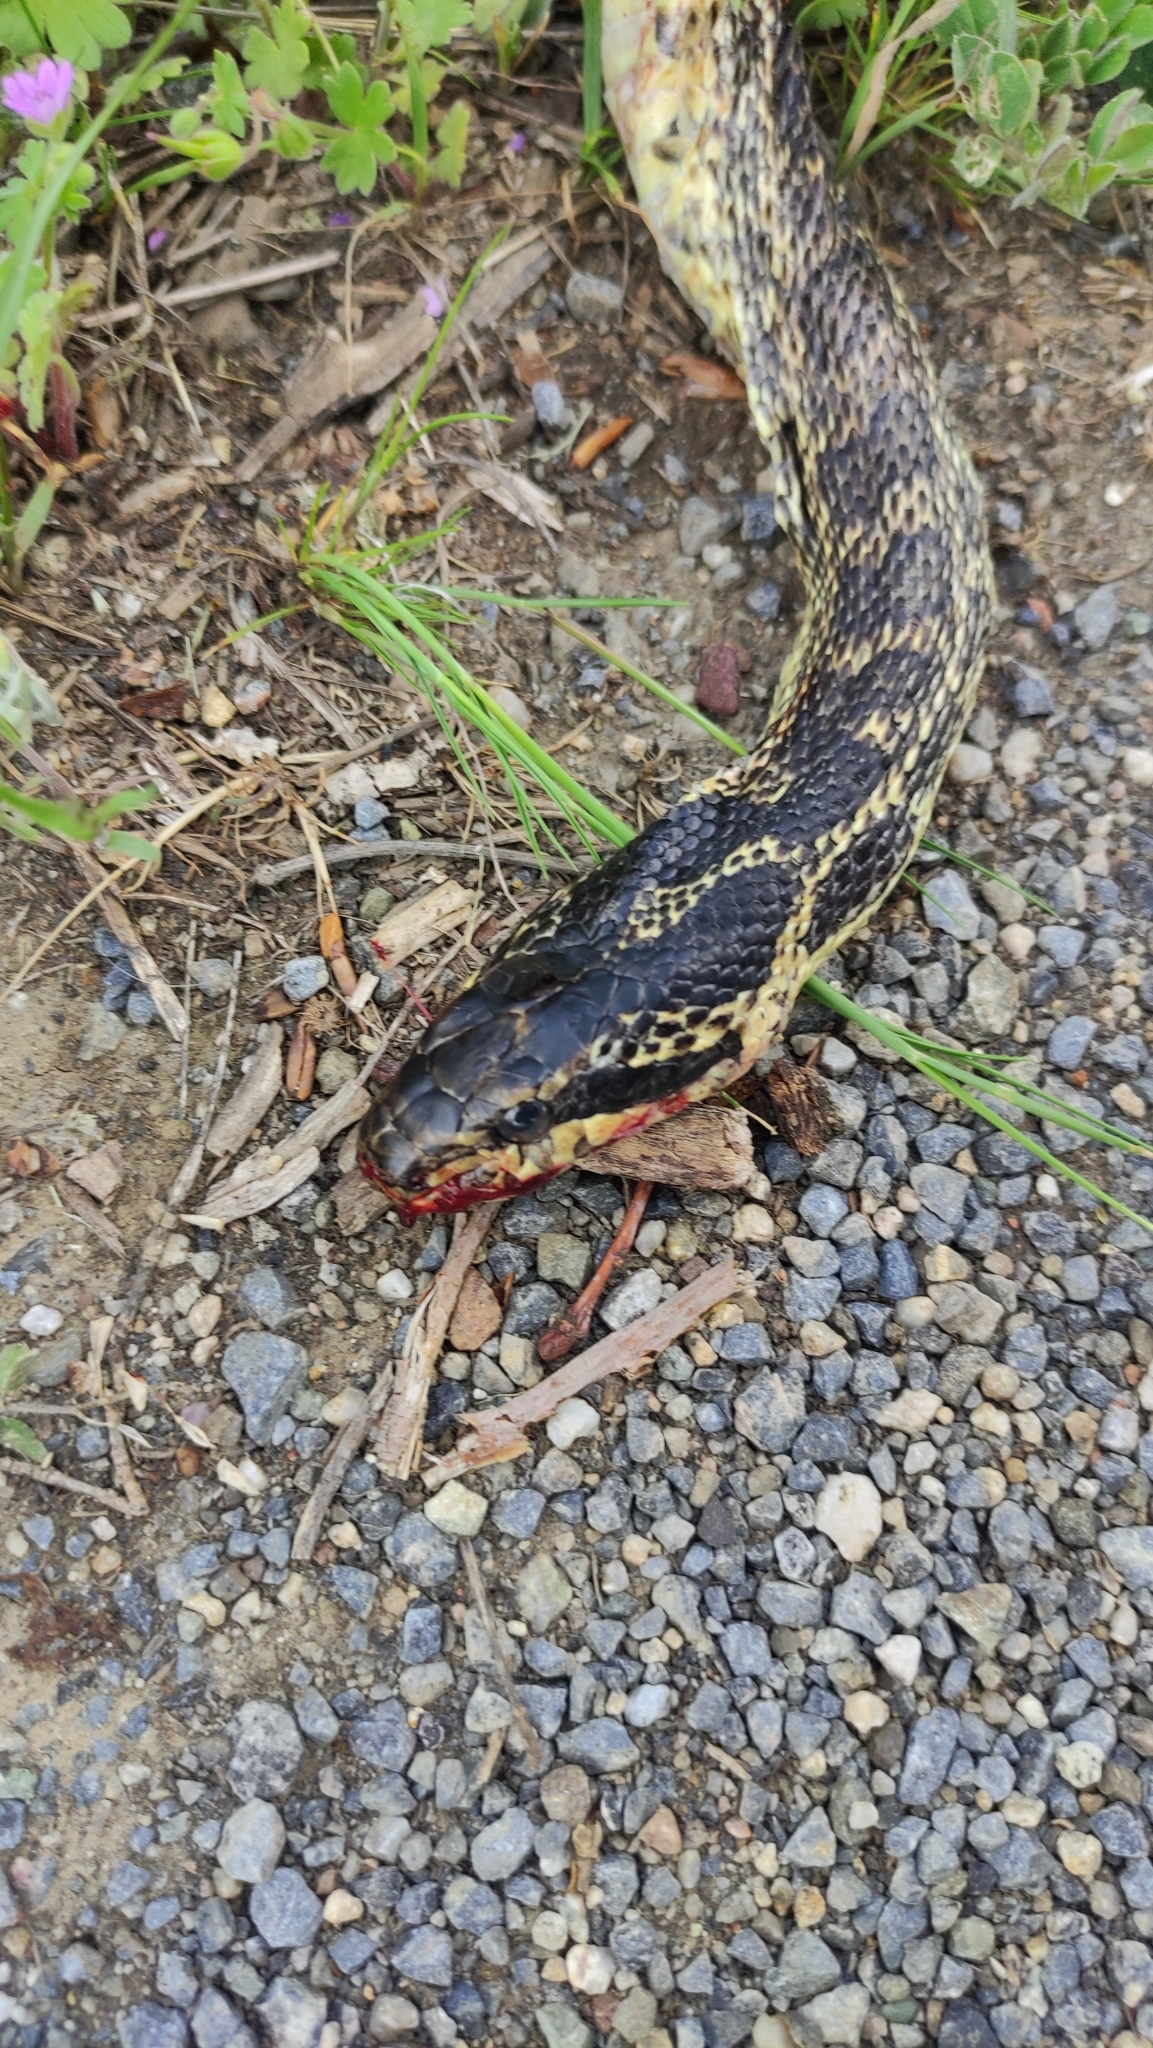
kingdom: Animalia
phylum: Chordata
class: Squamata
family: Colubridae
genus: Elaphe
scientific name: Elaphe sauromates
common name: Eastern four-lined ratsnake
